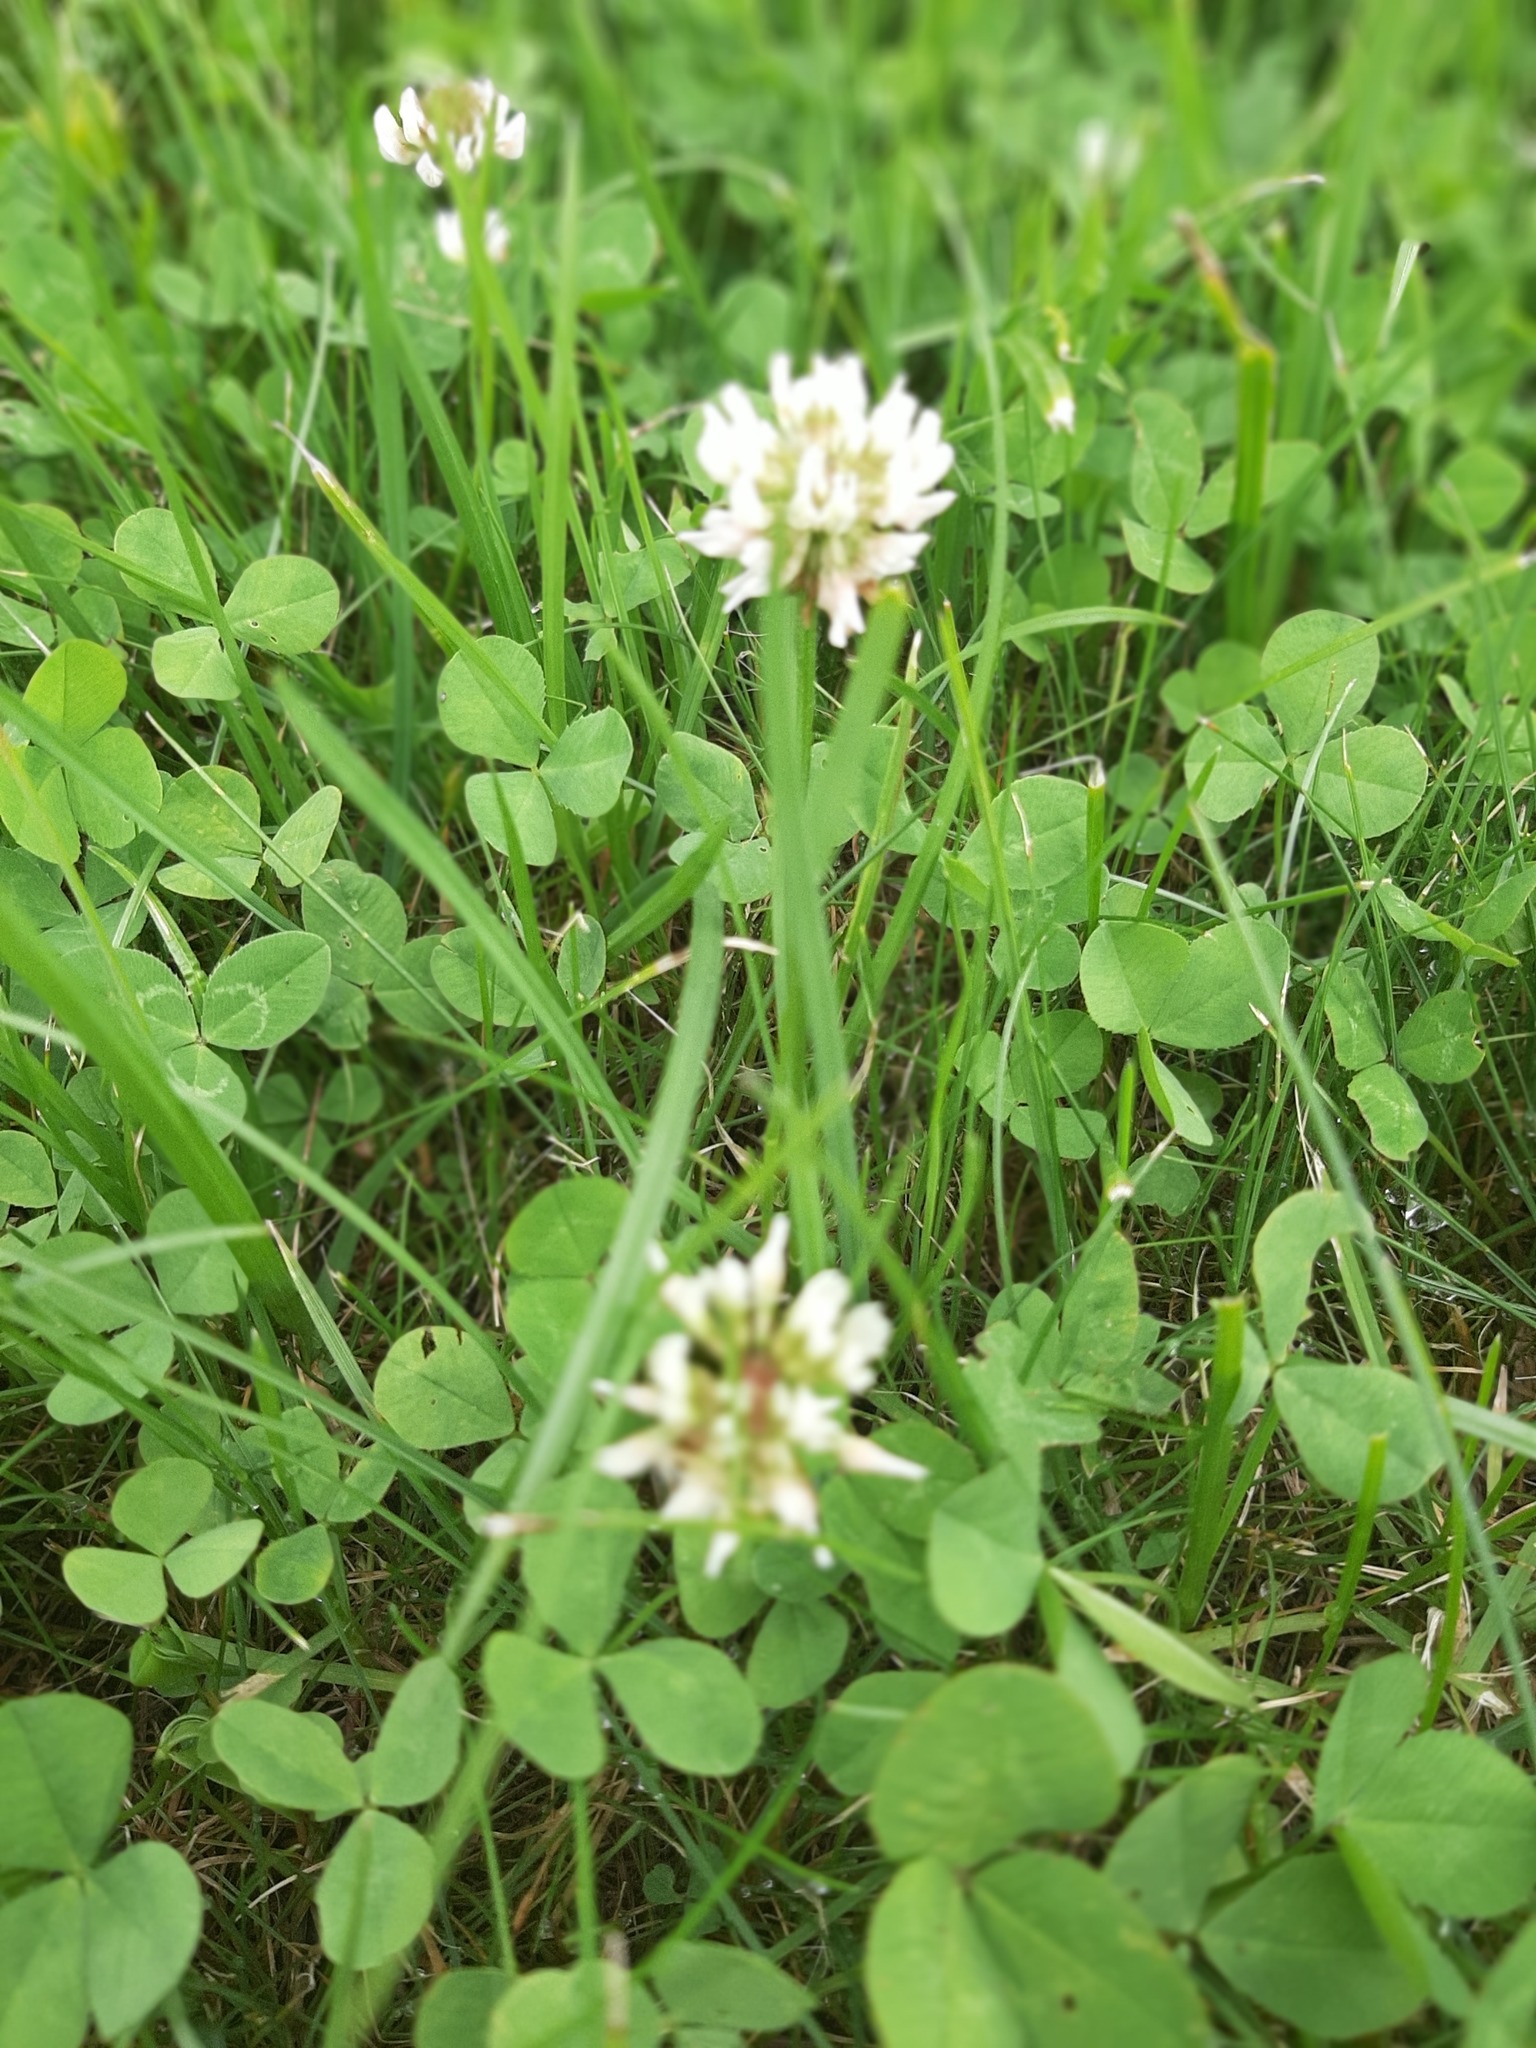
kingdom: Plantae
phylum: Tracheophyta
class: Magnoliopsida
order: Fabales
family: Fabaceae
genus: Trifolium
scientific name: Trifolium repens
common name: White clover
